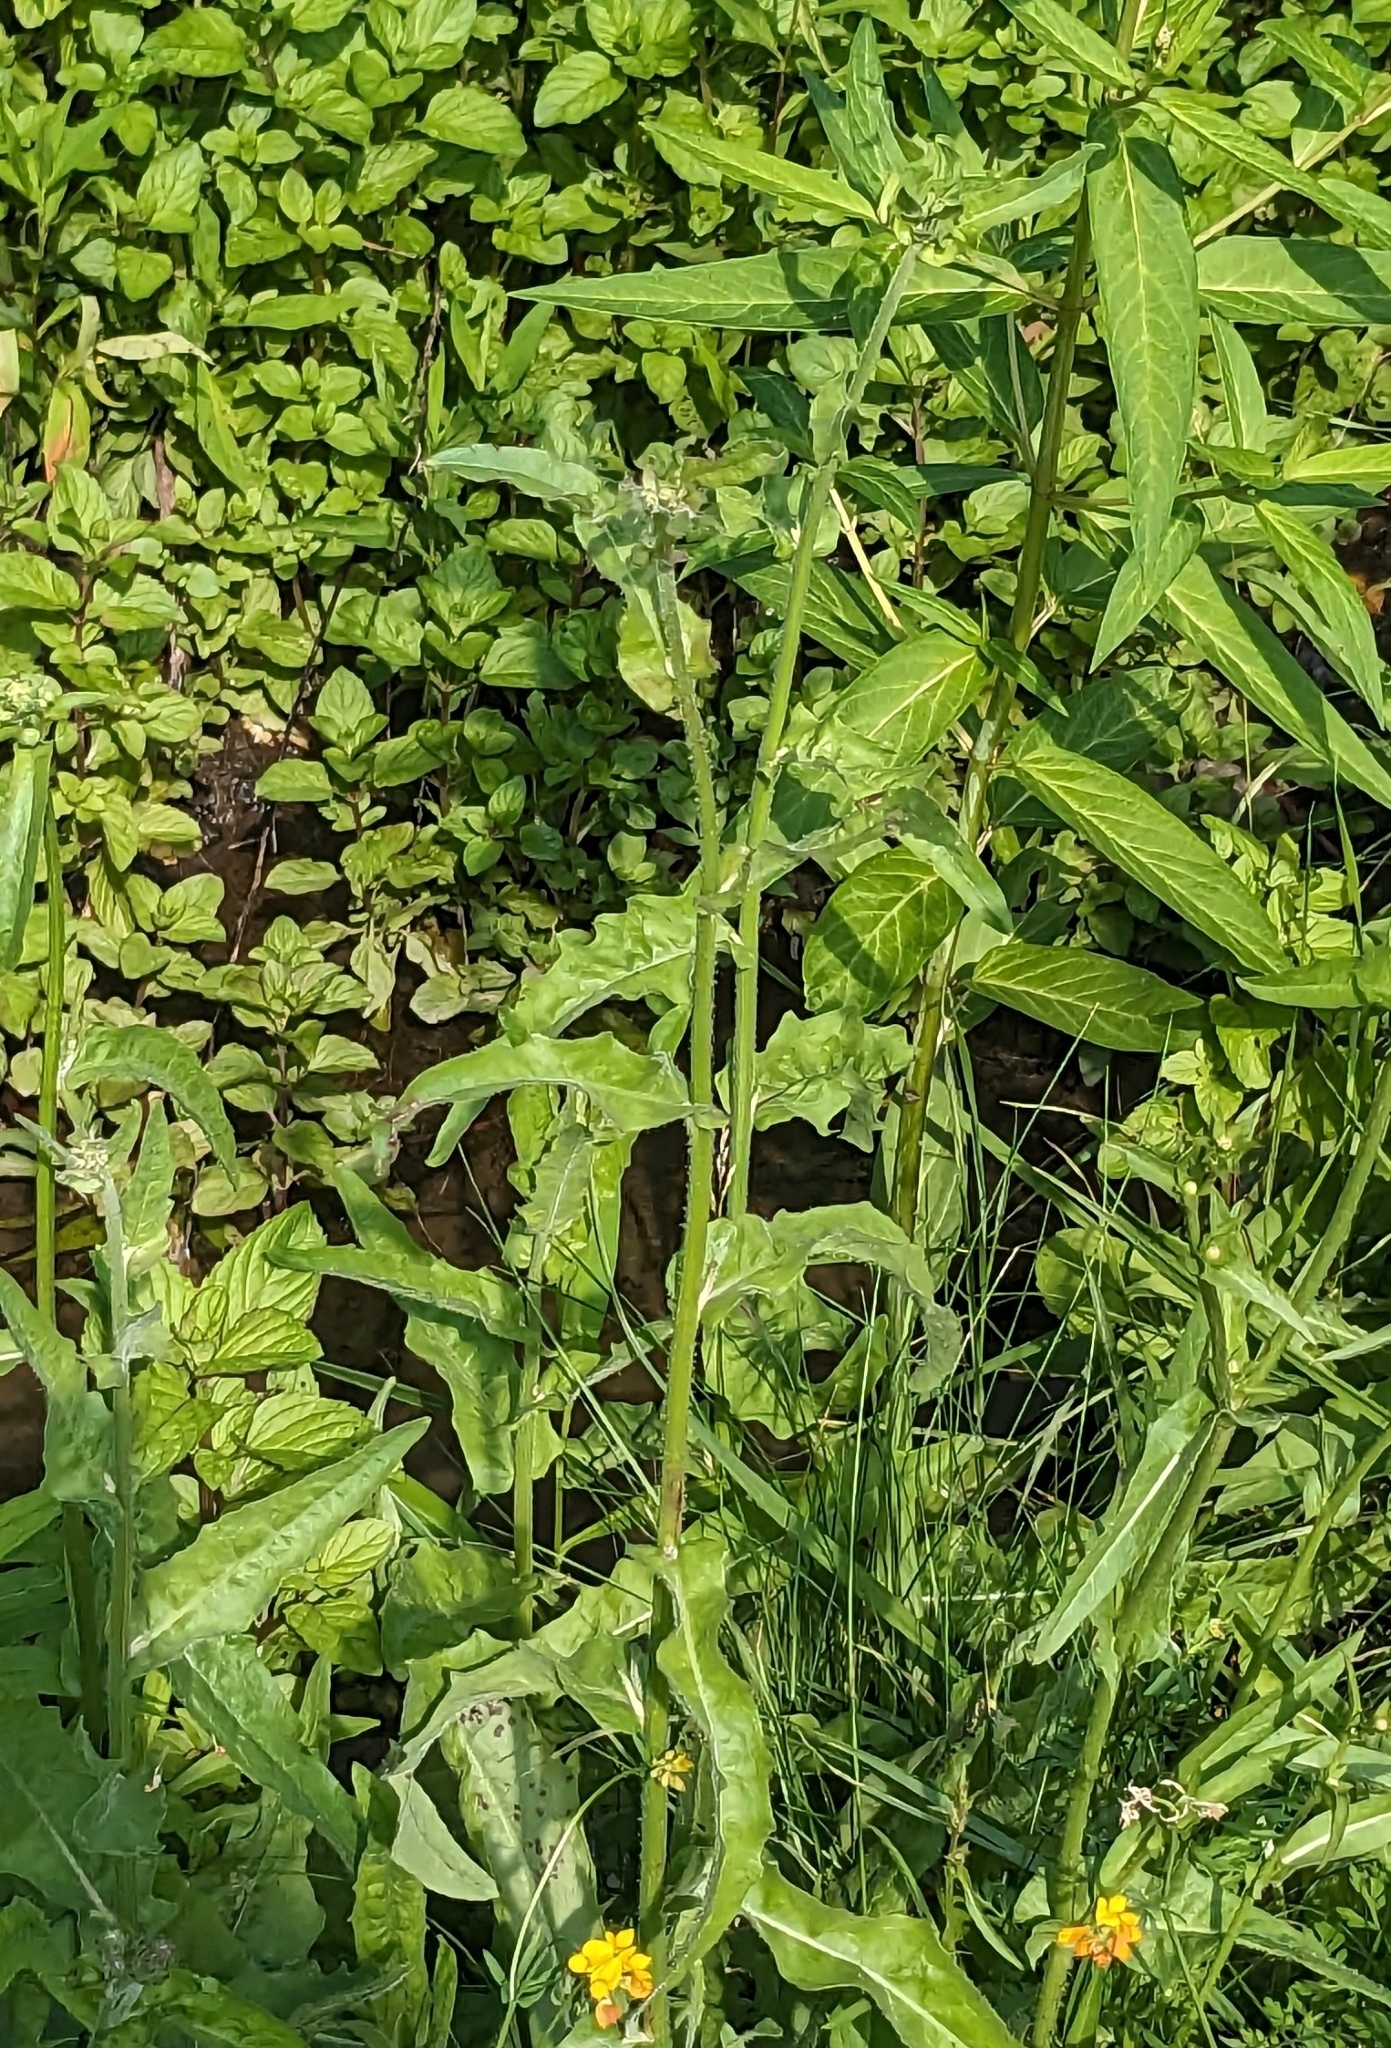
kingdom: Plantae
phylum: Tracheophyta
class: Magnoliopsida
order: Asterales
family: Asteraceae
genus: Cichorium
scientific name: Cichorium intybus
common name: Chicory
